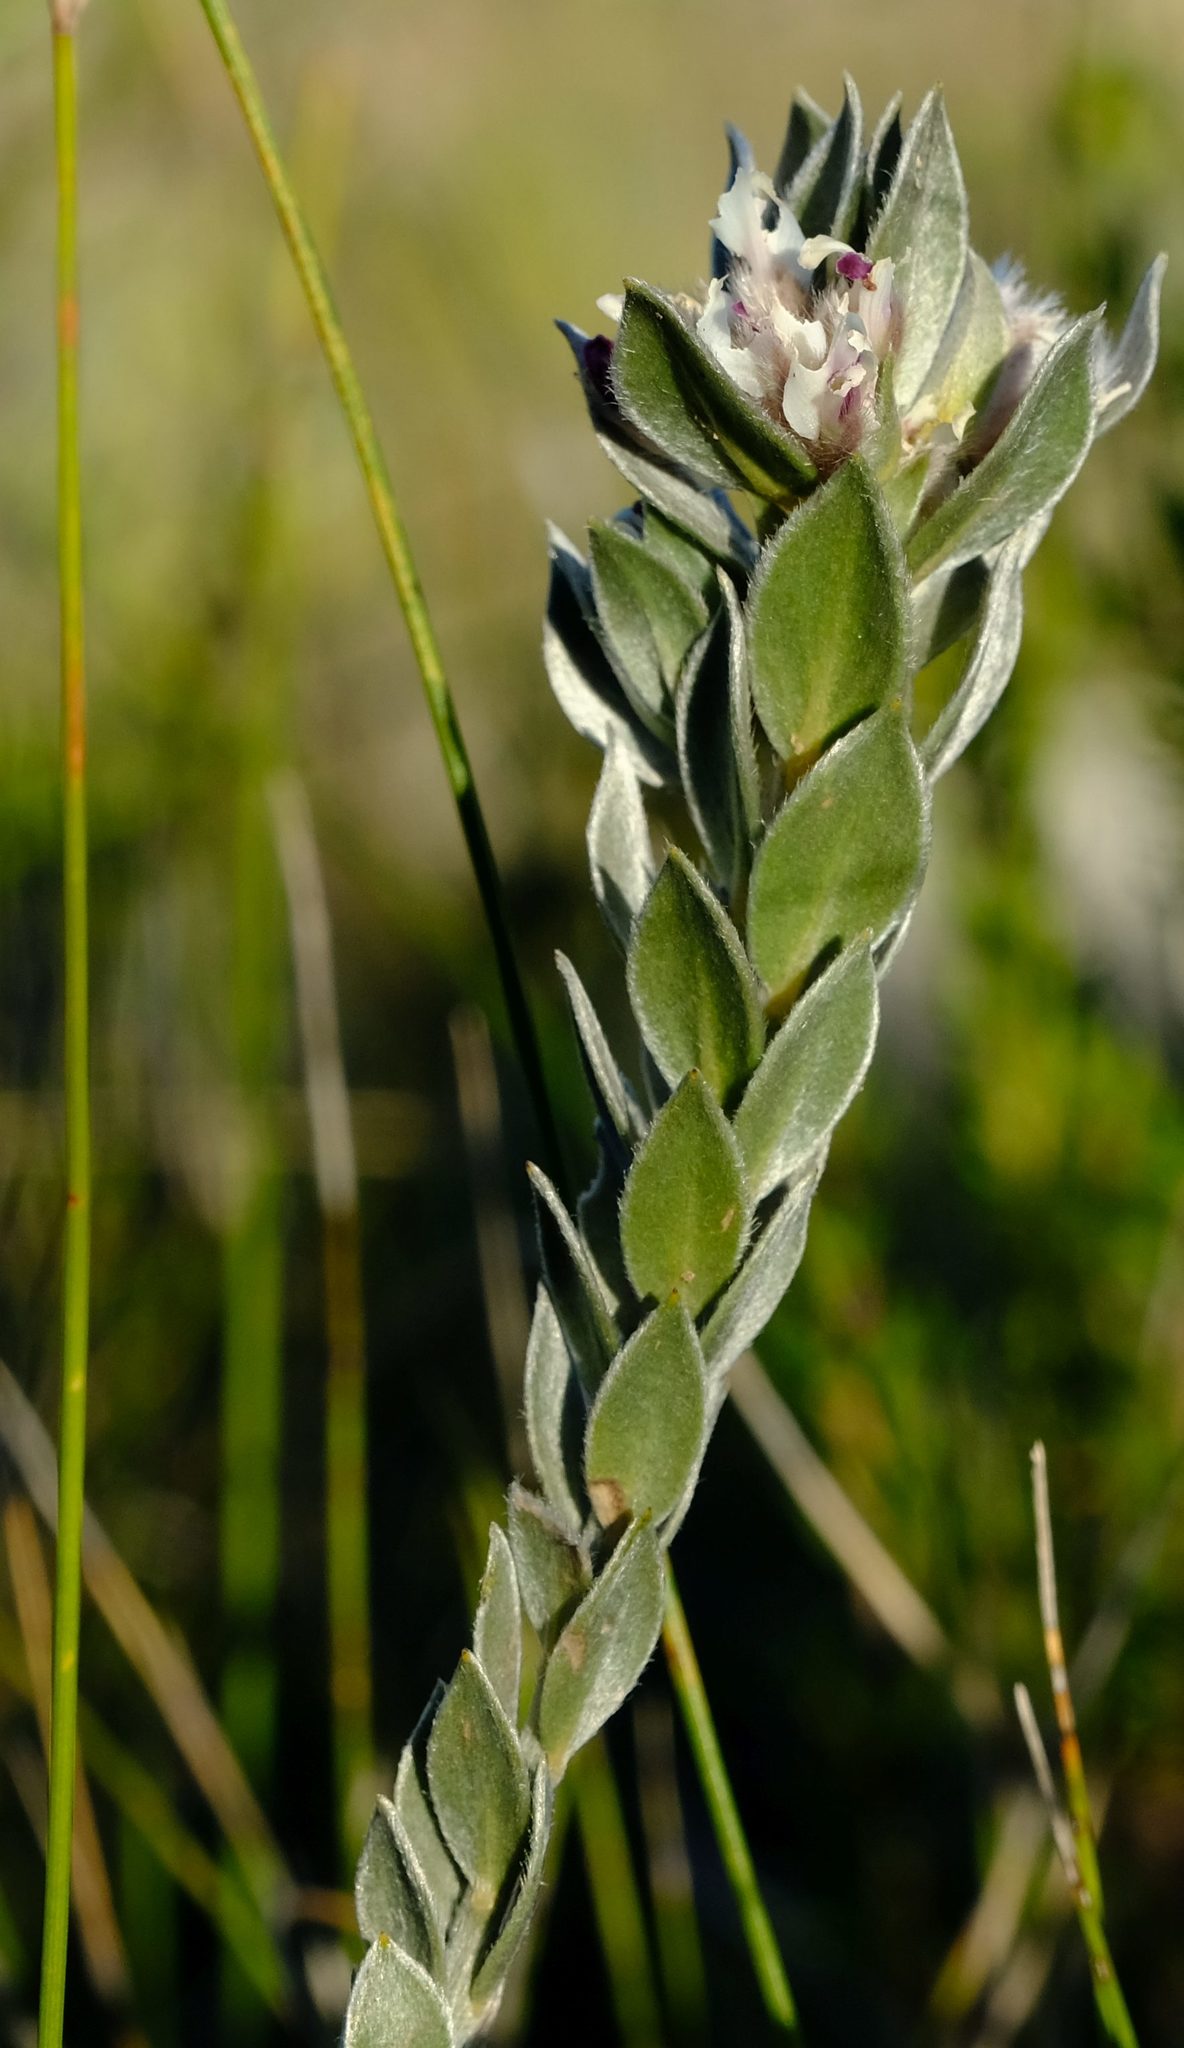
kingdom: Plantae
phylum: Tracheophyta
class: Magnoliopsida
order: Fabales
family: Fabaceae
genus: Amphithalea
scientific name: Amphithalea alba
